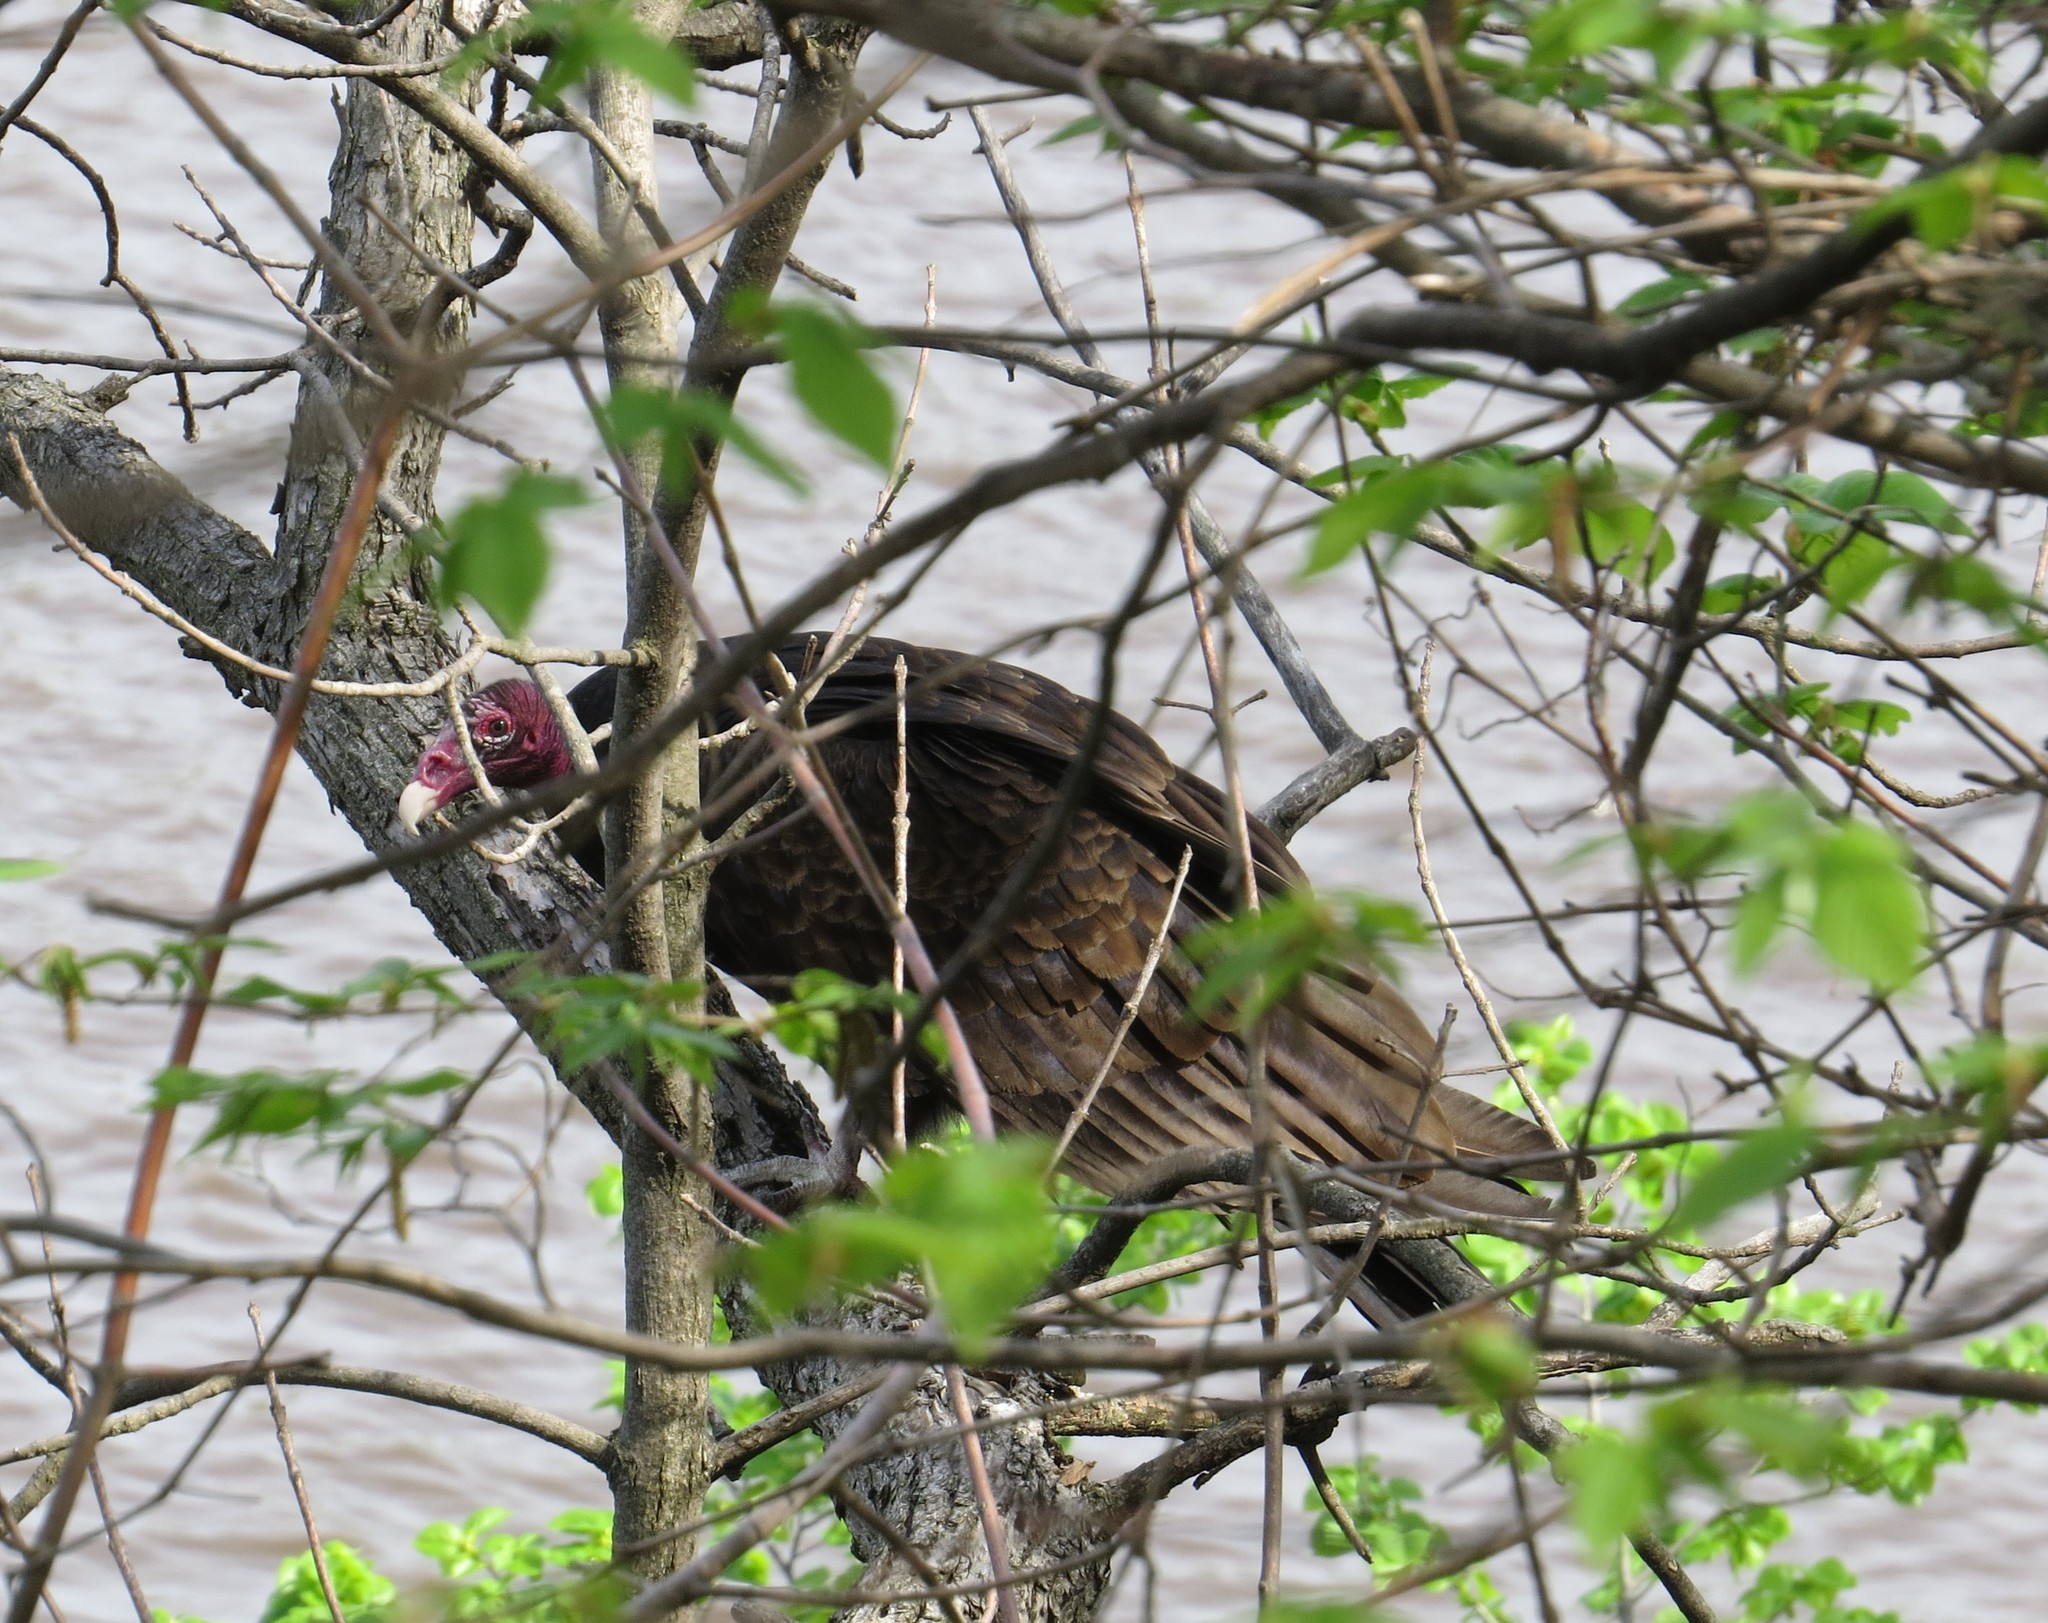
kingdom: Animalia
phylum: Chordata
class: Aves
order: Accipitriformes
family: Cathartidae
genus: Cathartes
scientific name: Cathartes aura
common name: Turkey vulture
